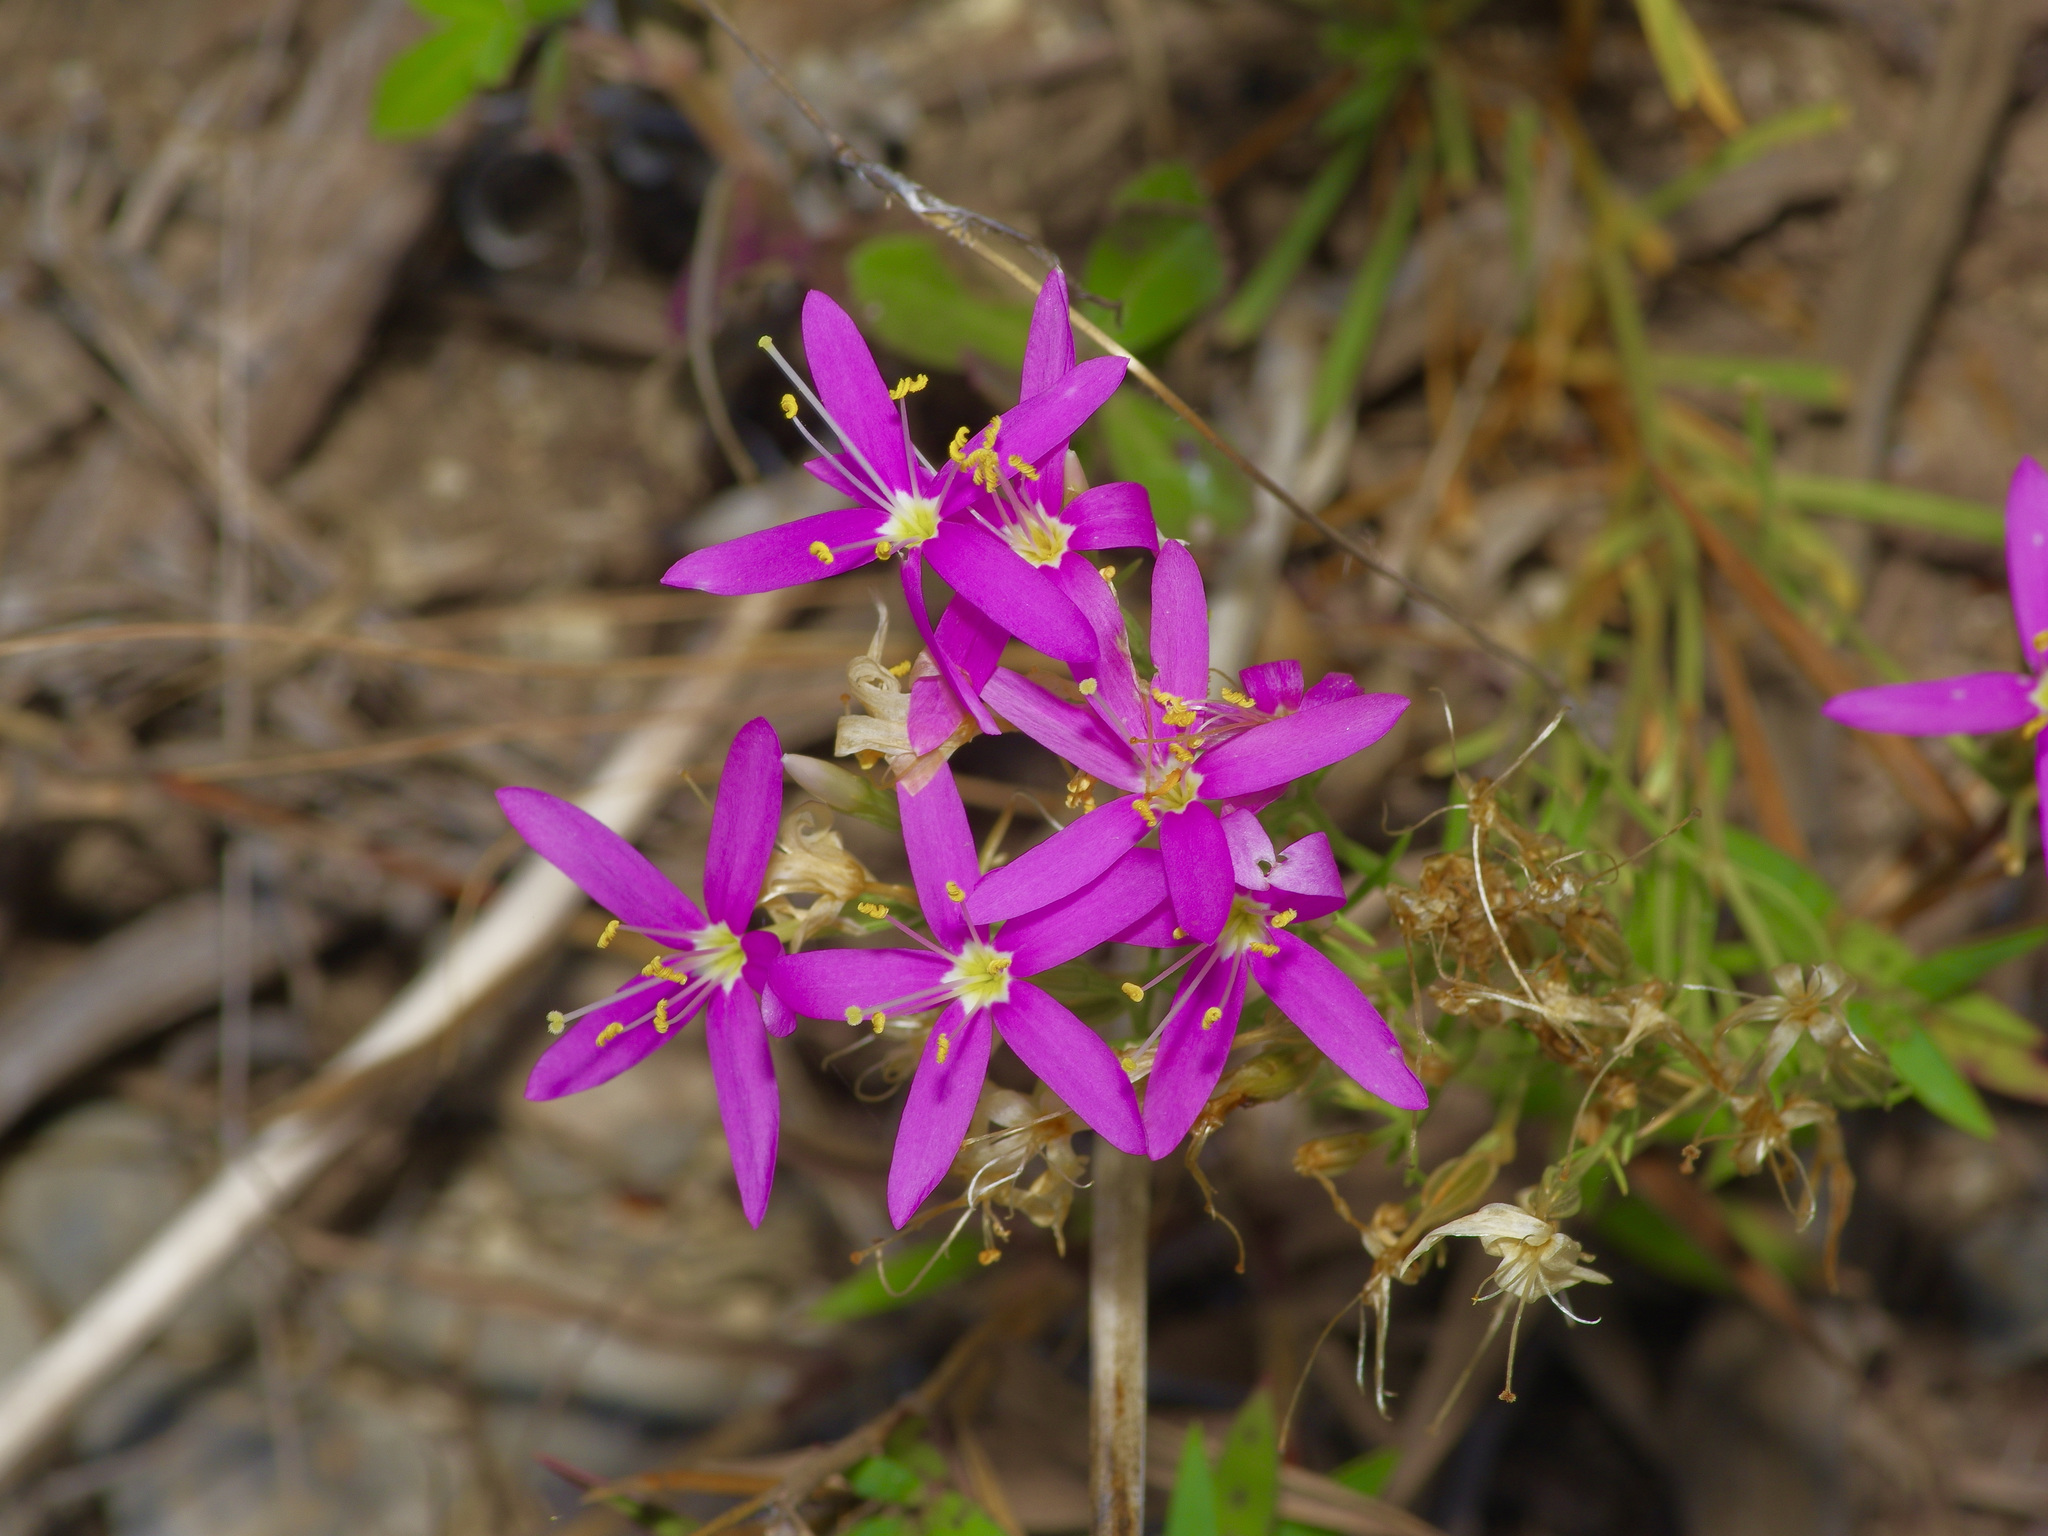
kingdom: Plantae
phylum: Tracheophyta
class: Magnoliopsida
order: Gentianales
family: Gentianaceae
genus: Zeltnera
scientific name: Zeltnera beyrichii
